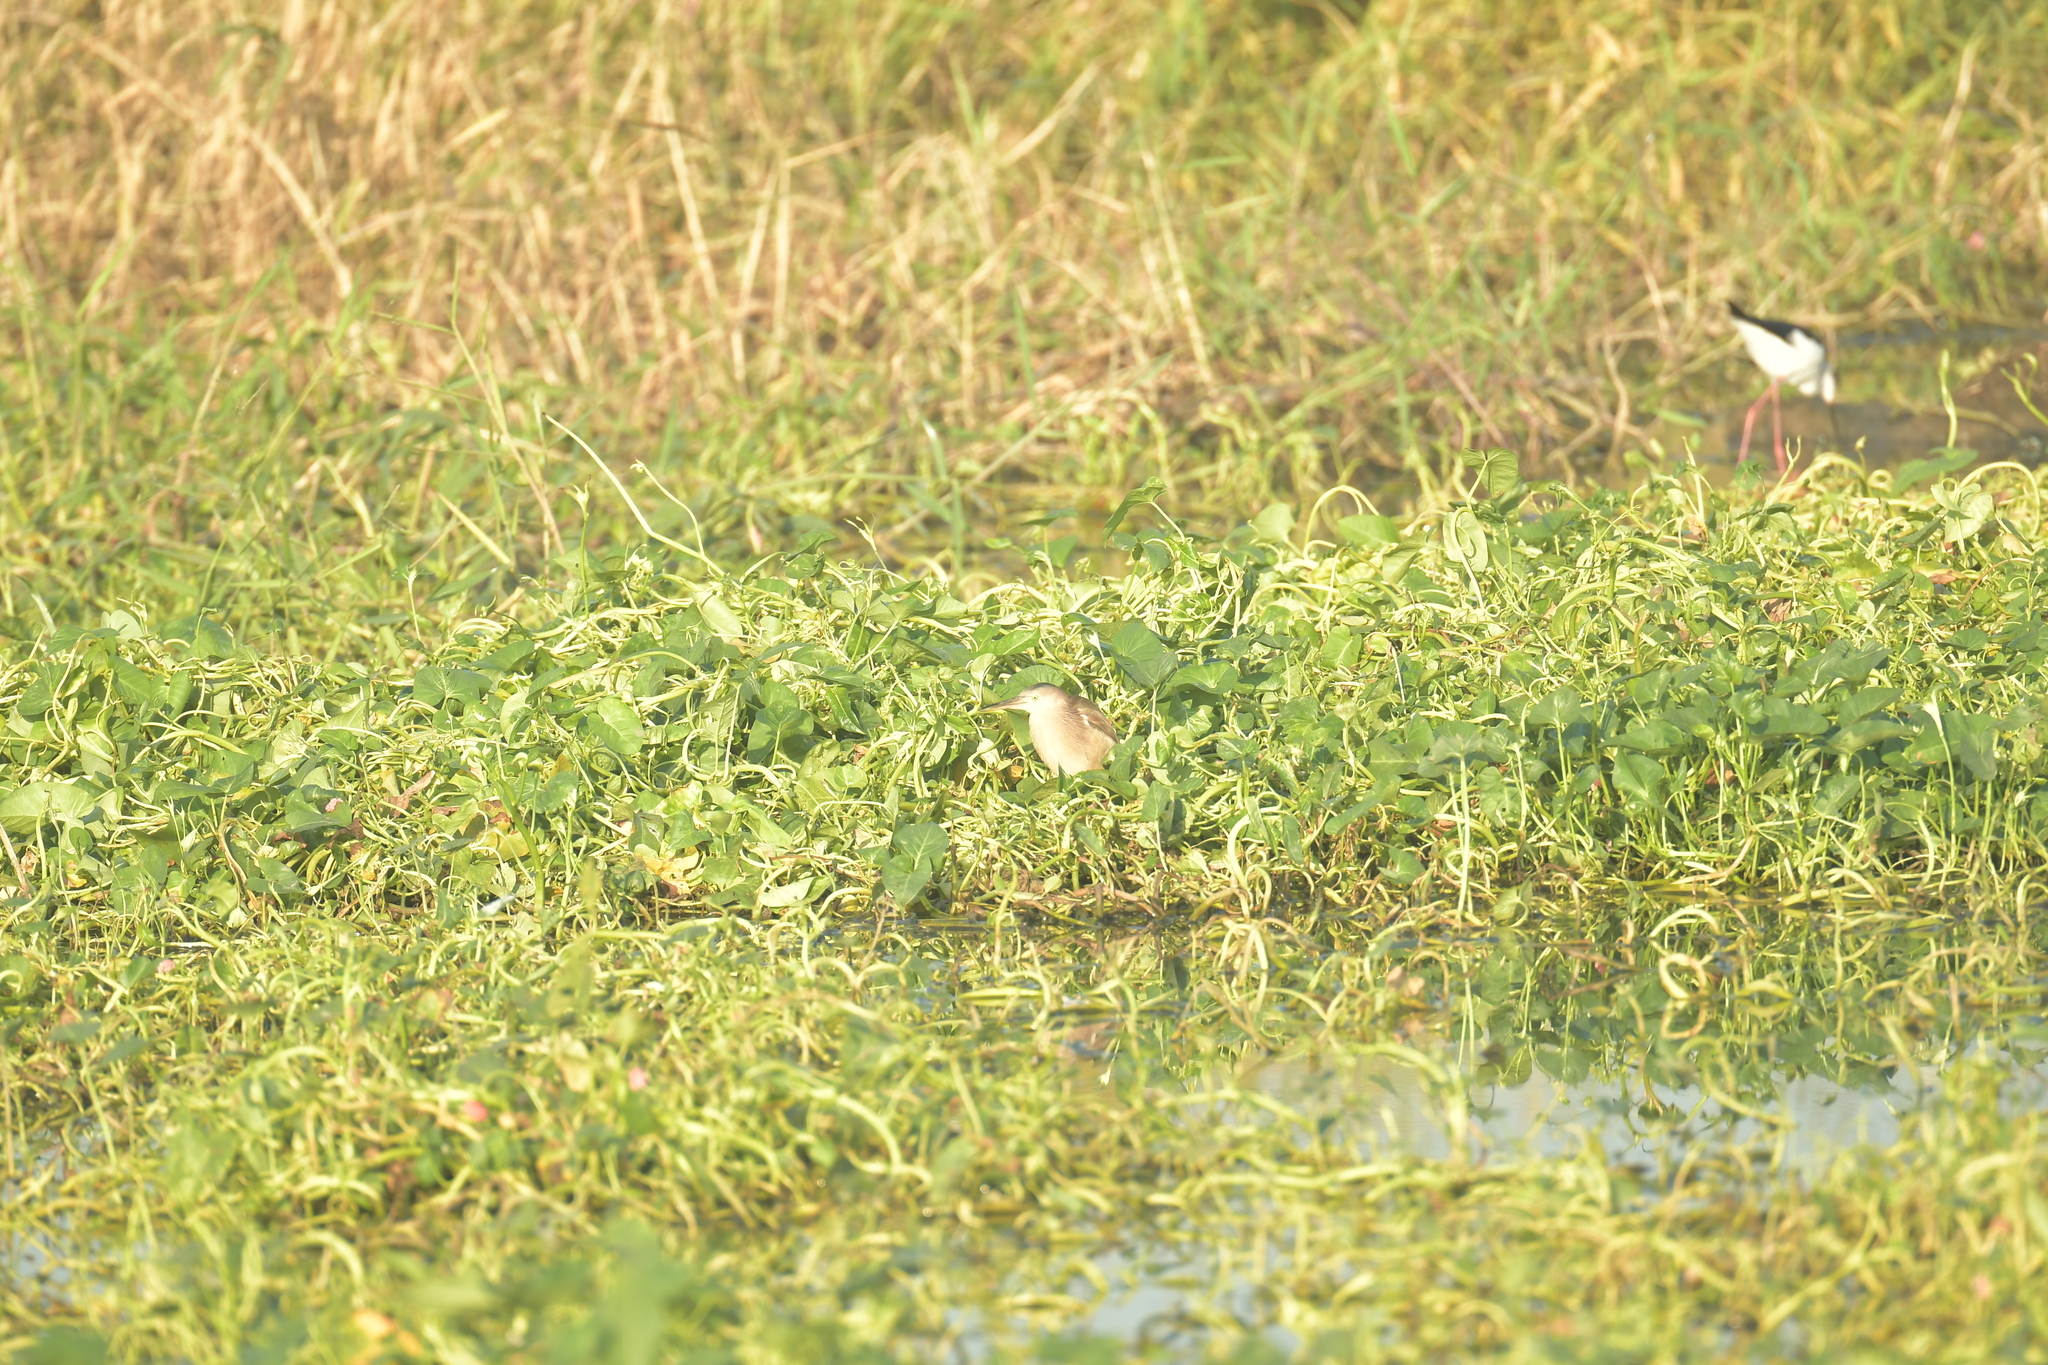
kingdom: Animalia
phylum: Chordata
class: Aves
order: Pelecaniformes
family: Ardeidae
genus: Ixobrychus
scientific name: Ixobrychus sinensis
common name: Yellow bittern
